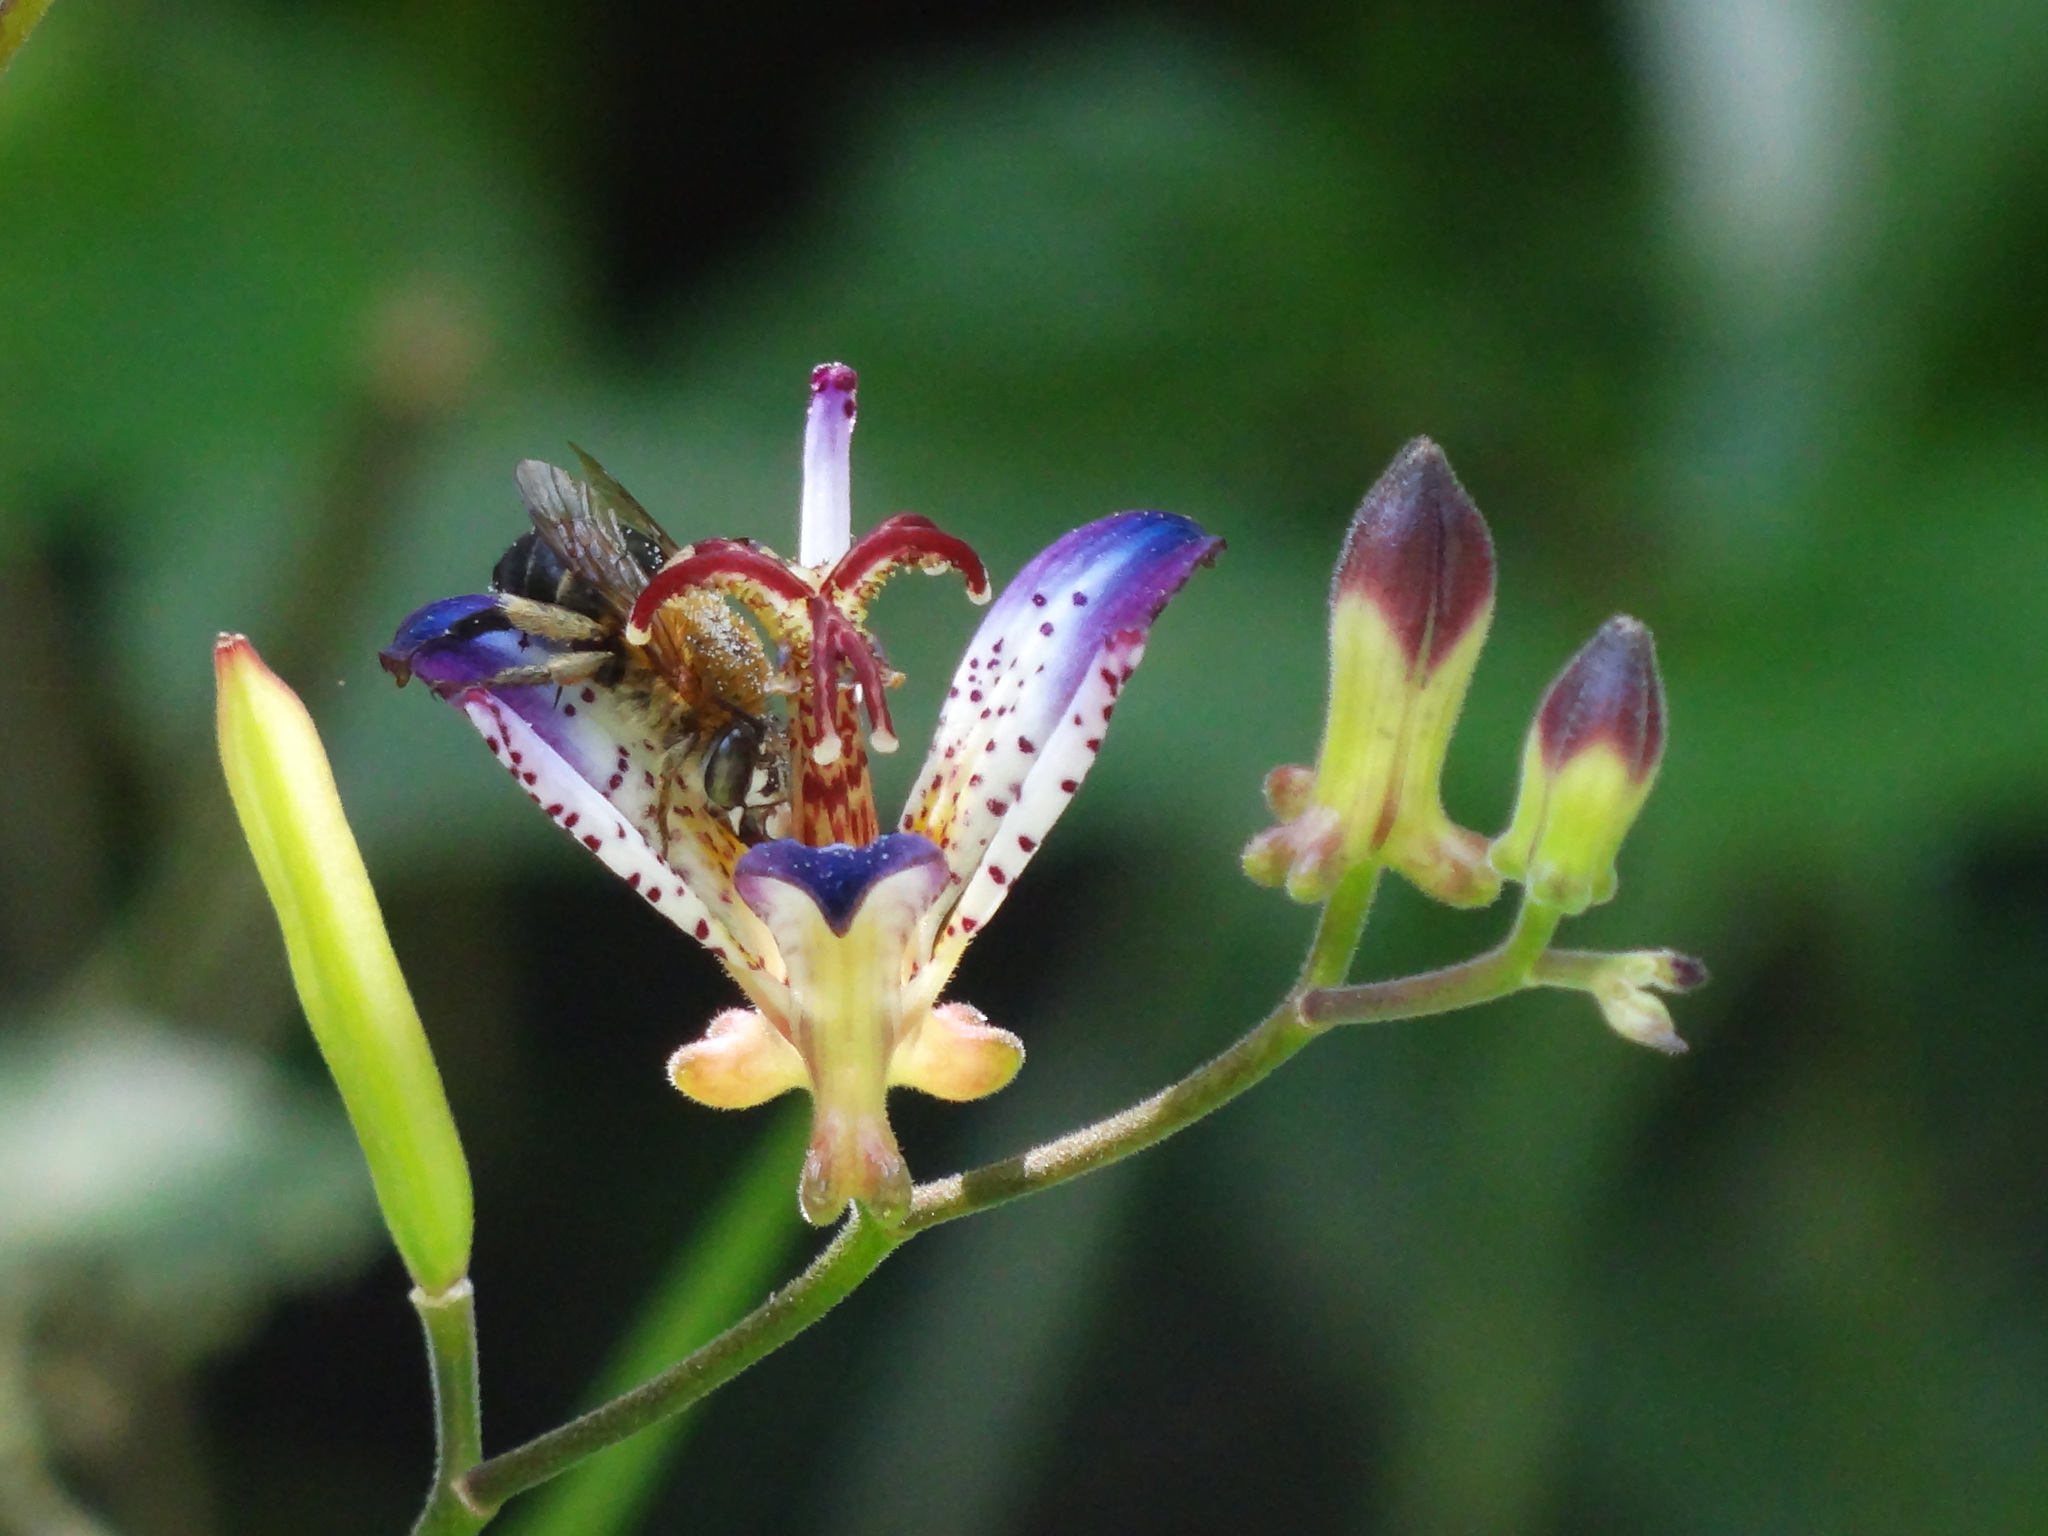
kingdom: Plantae
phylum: Tracheophyta
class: Liliopsida
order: Liliales
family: Liliaceae
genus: Tricyrtis
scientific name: Tricyrtis lasiocarpa
